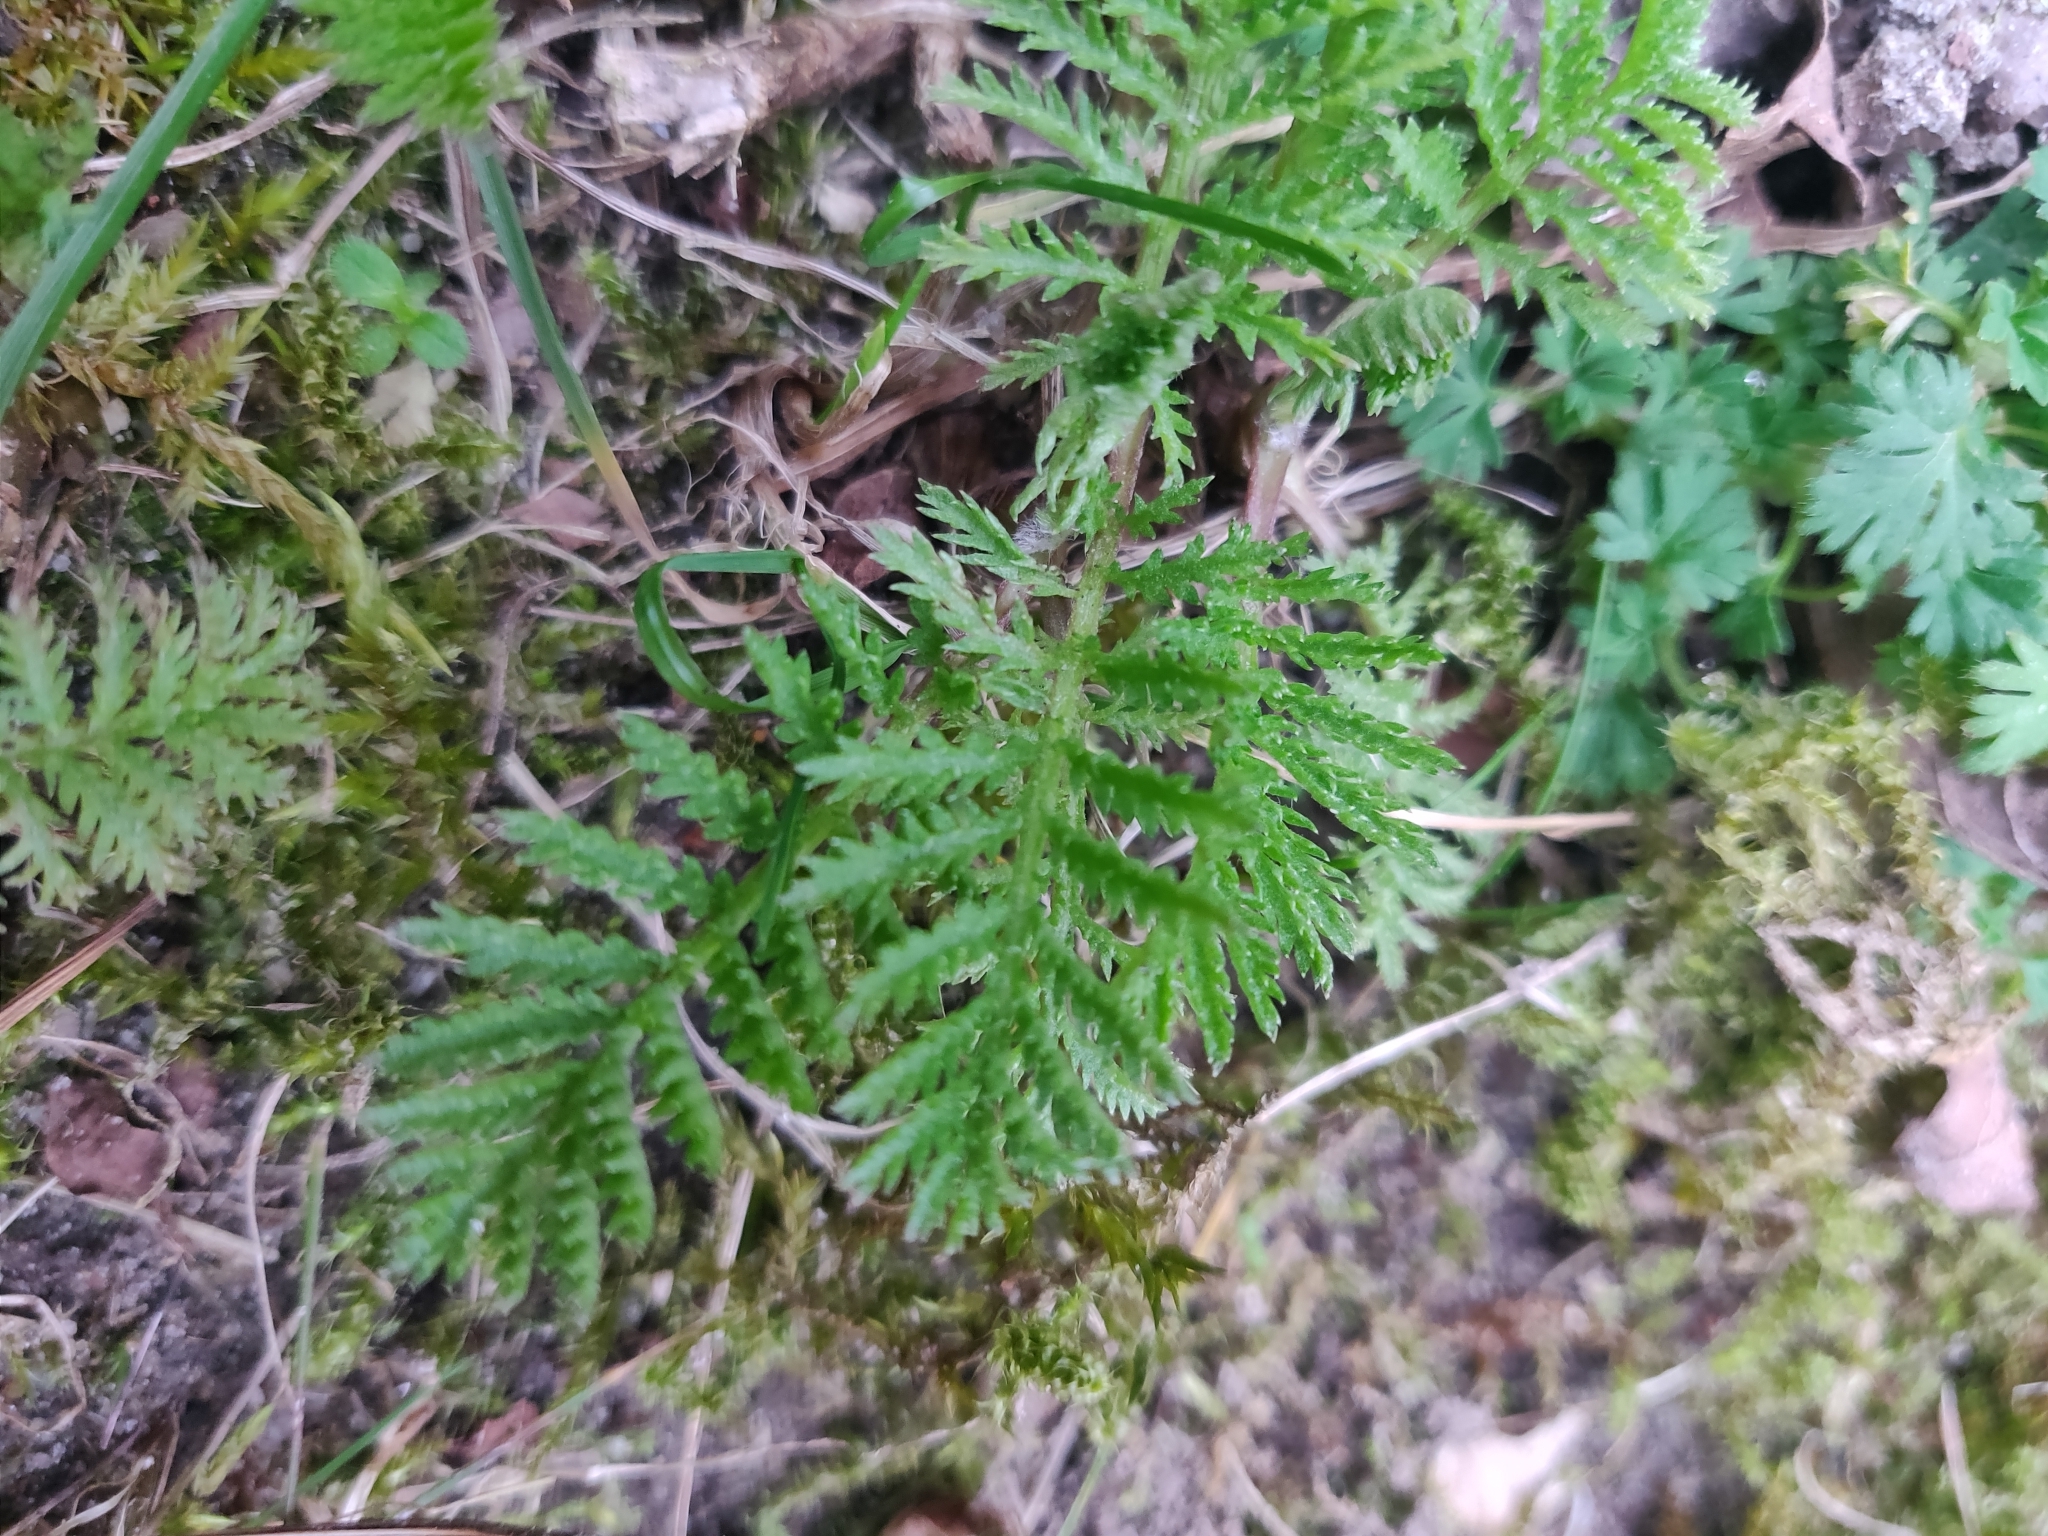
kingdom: Plantae
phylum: Tracheophyta
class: Magnoliopsida
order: Asterales
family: Asteraceae
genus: Tanacetum
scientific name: Tanacetum vulgare
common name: Common tansy
